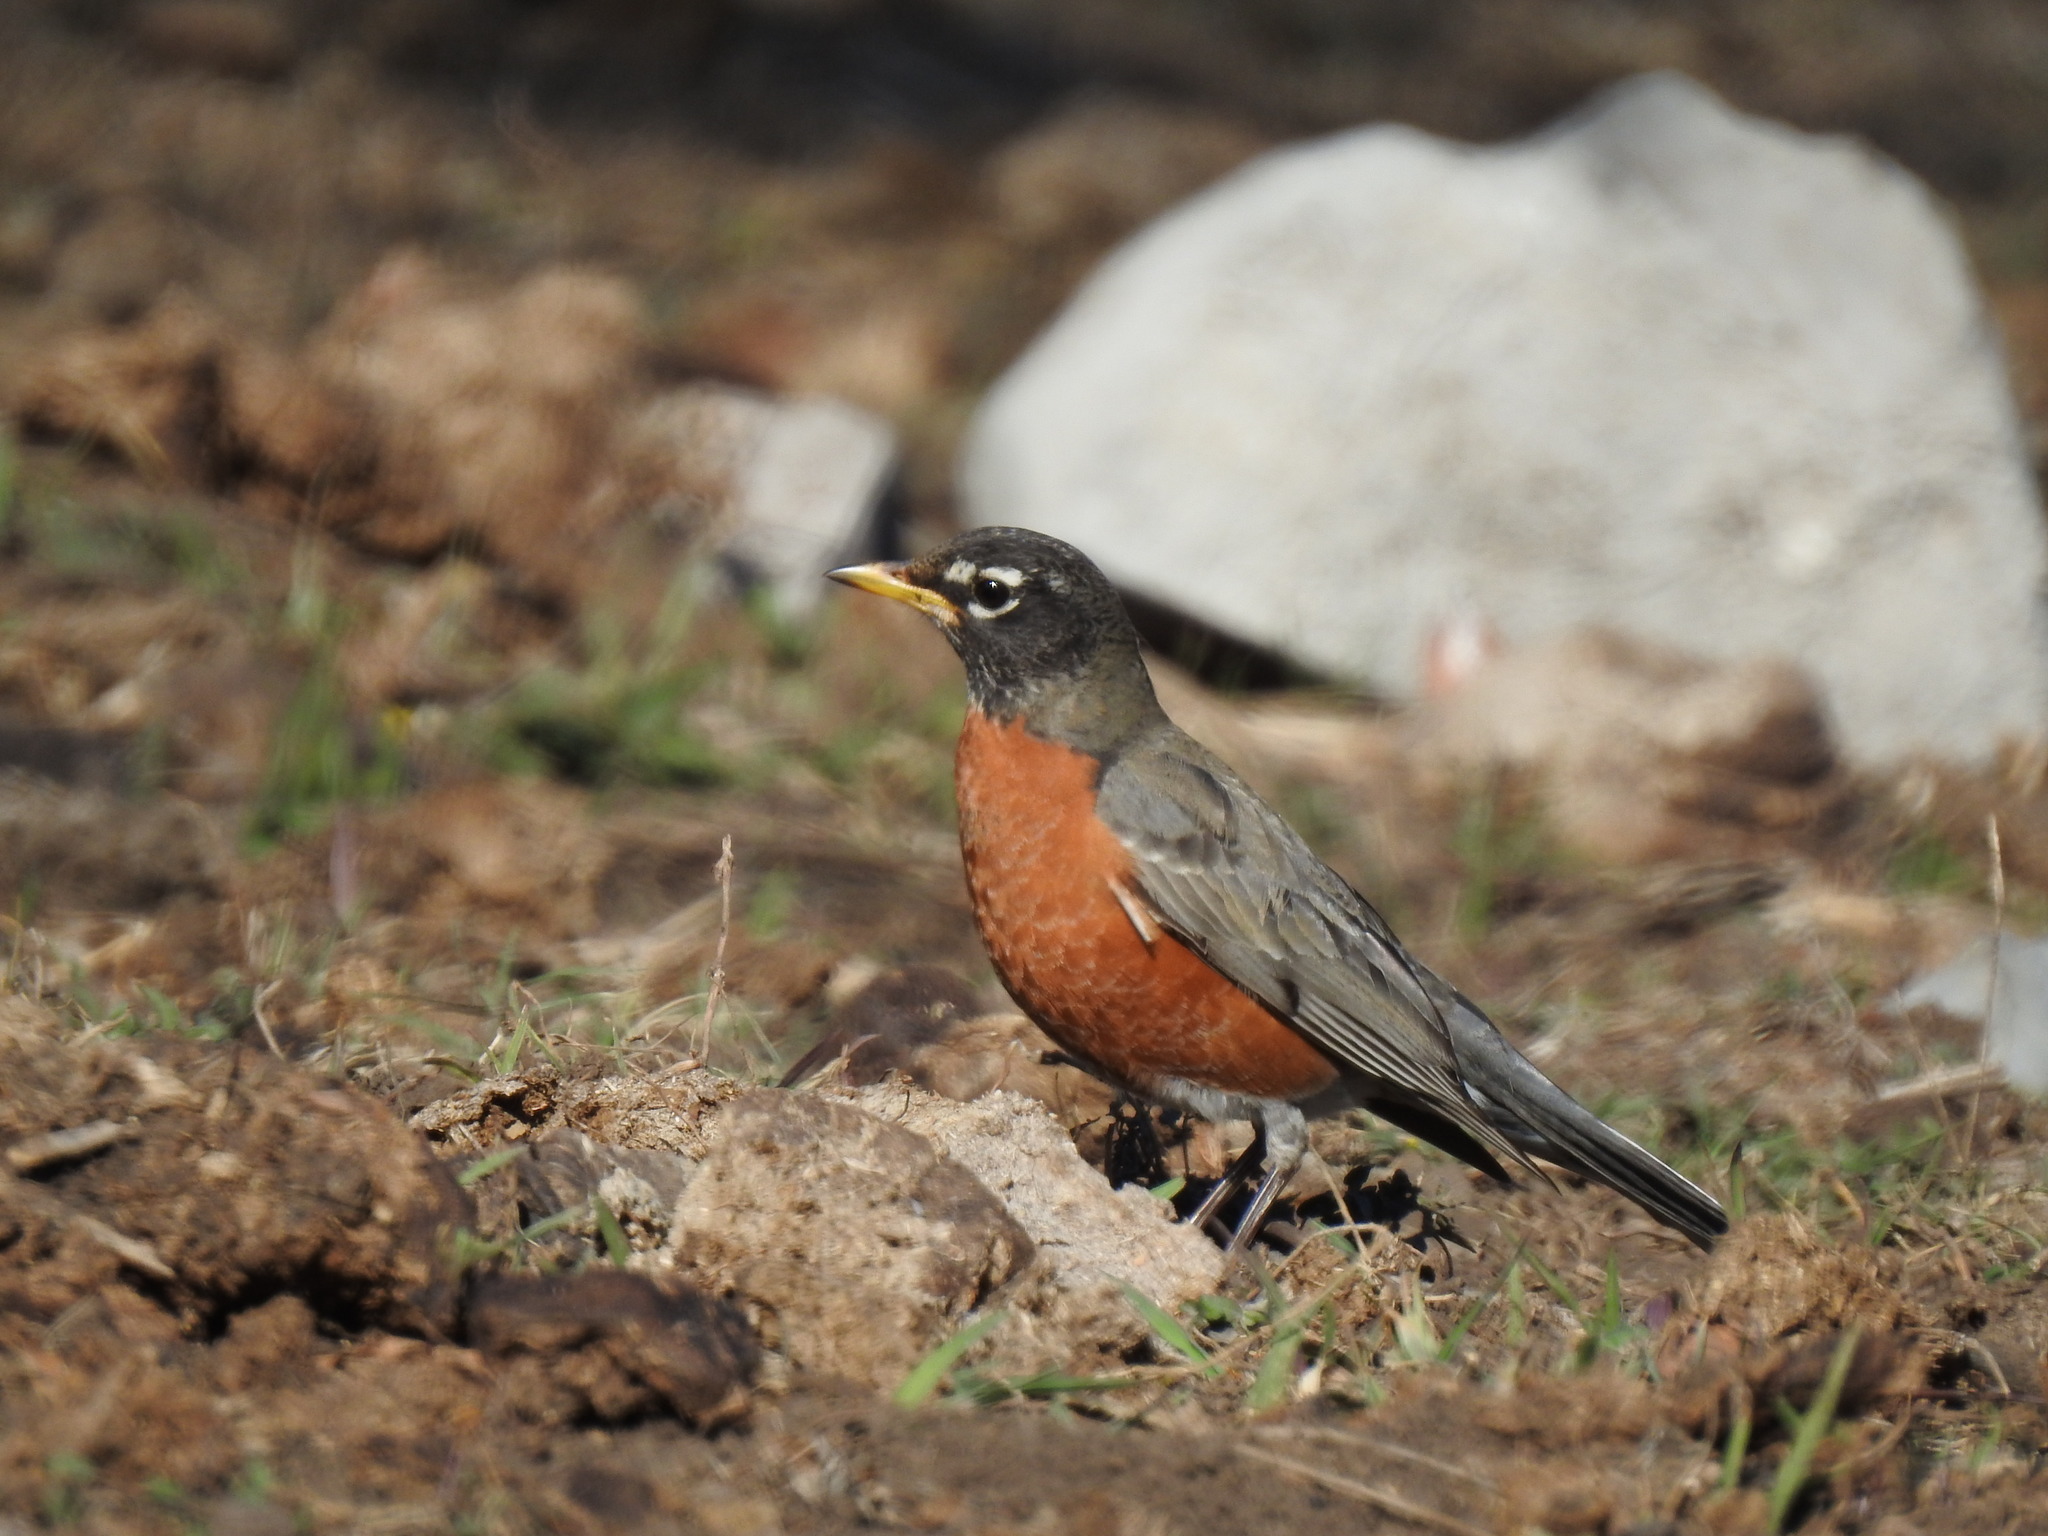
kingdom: Animalia
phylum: Chordata
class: Aves
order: Passeriformes
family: Turdidae
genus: Turdus
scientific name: Turdus migratorius
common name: American robin
